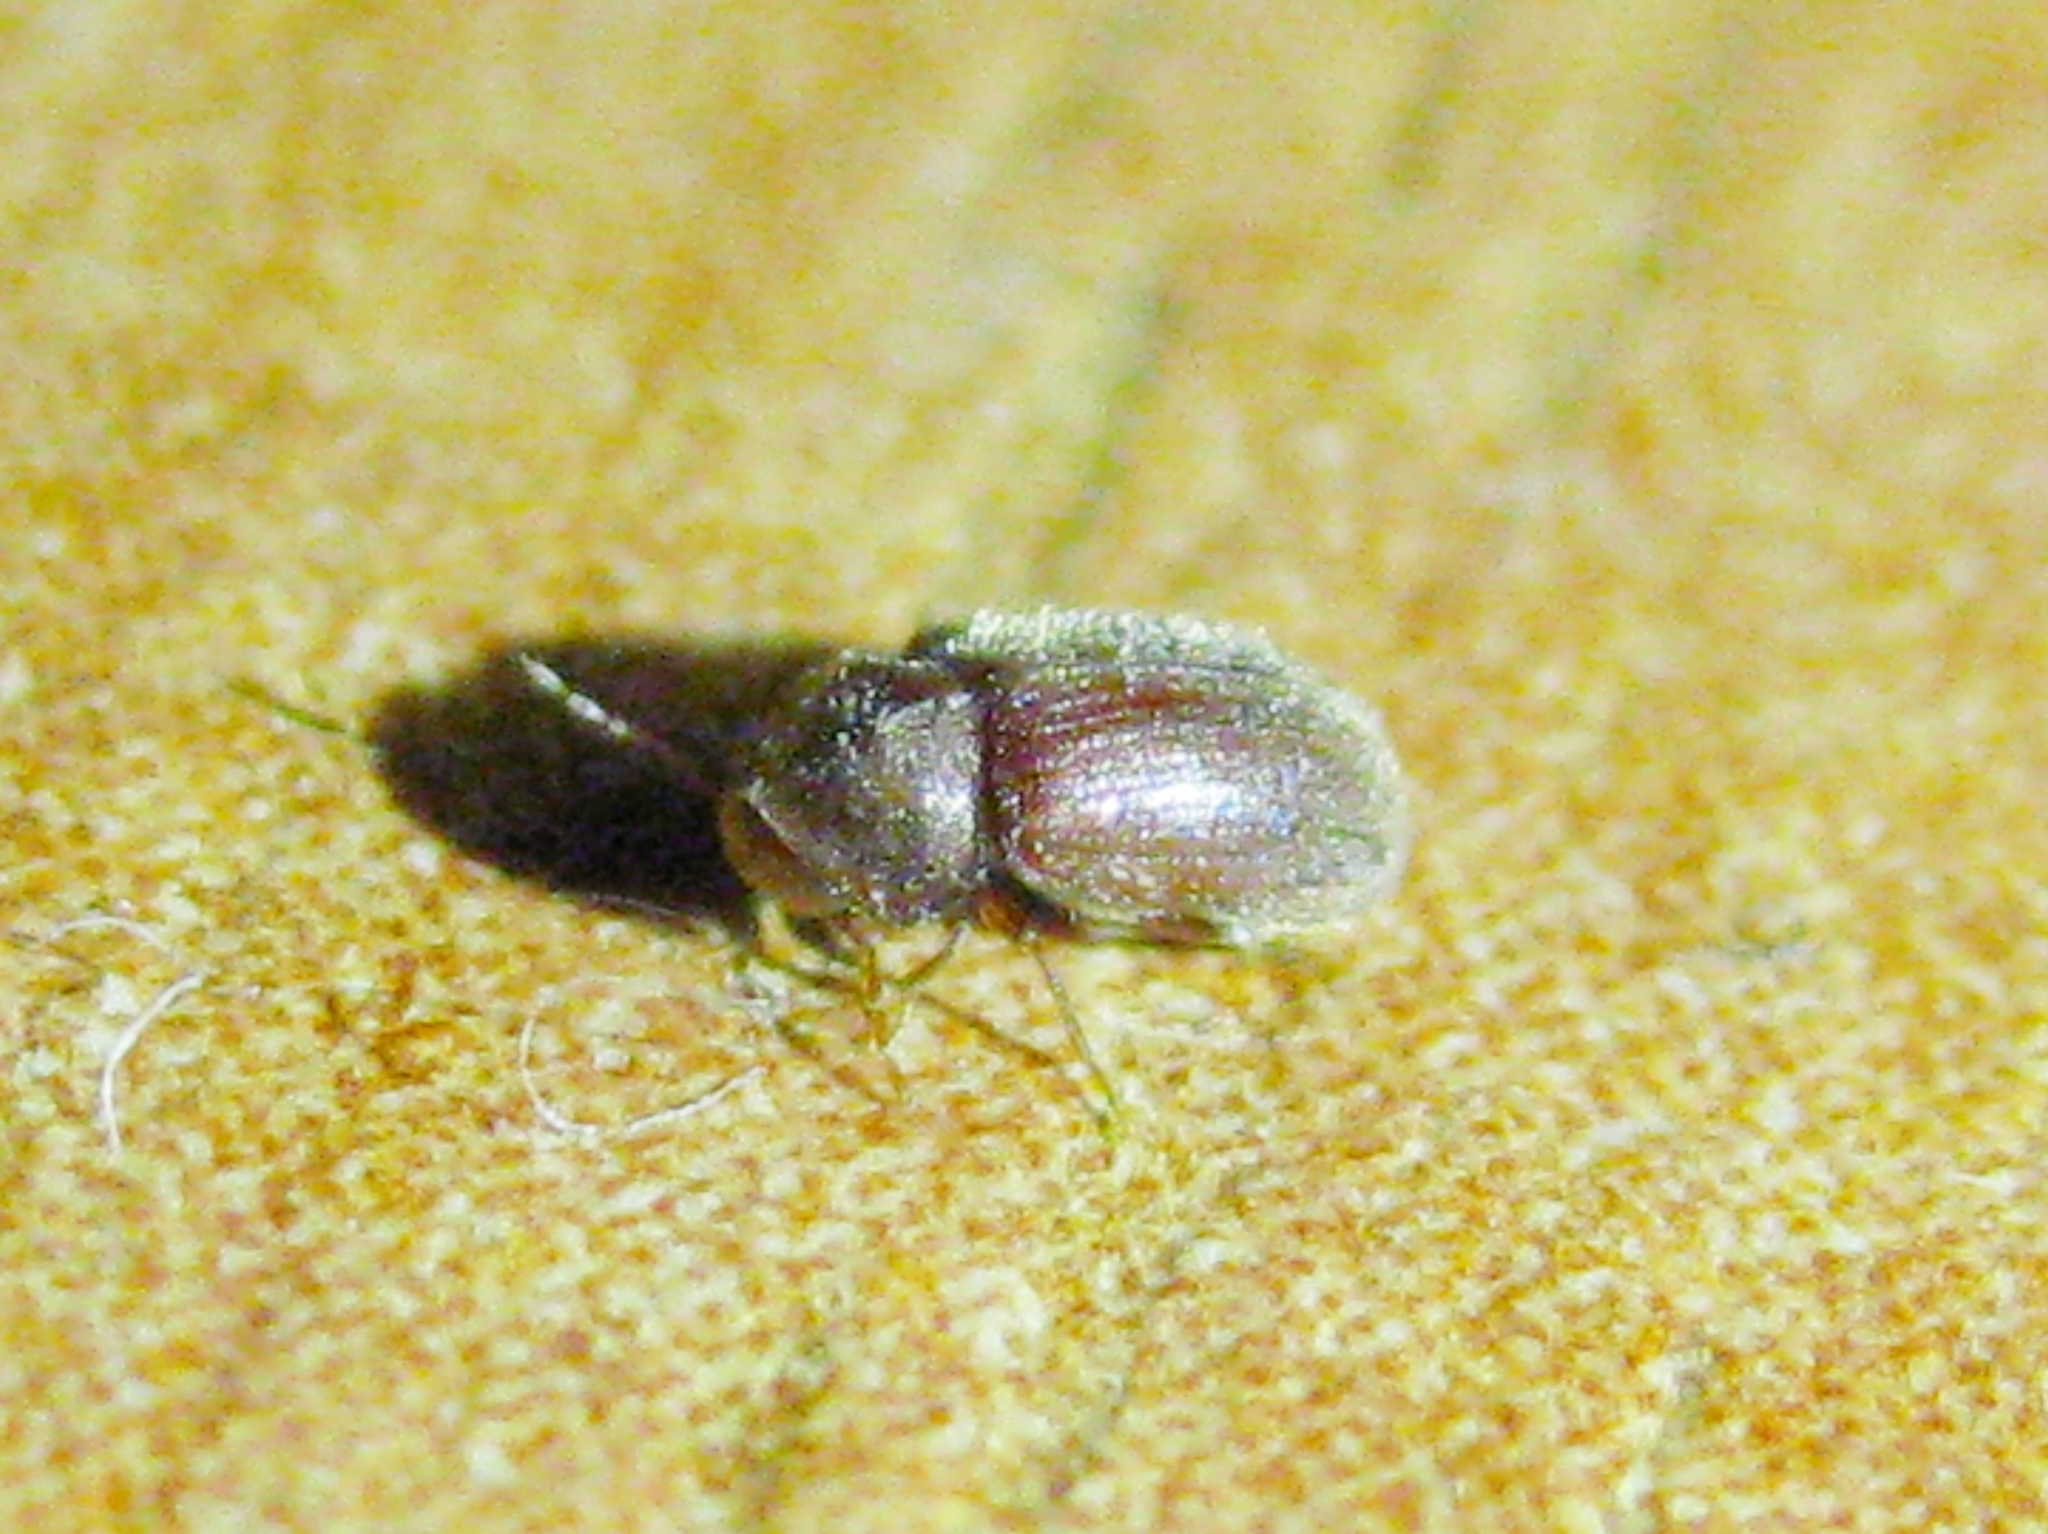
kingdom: Animalia
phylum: Arthropoda
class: Insecta
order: Coleoptera
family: Anobiidae
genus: Stegobium
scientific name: Stegobium paniceum
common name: Drugstore beetle
